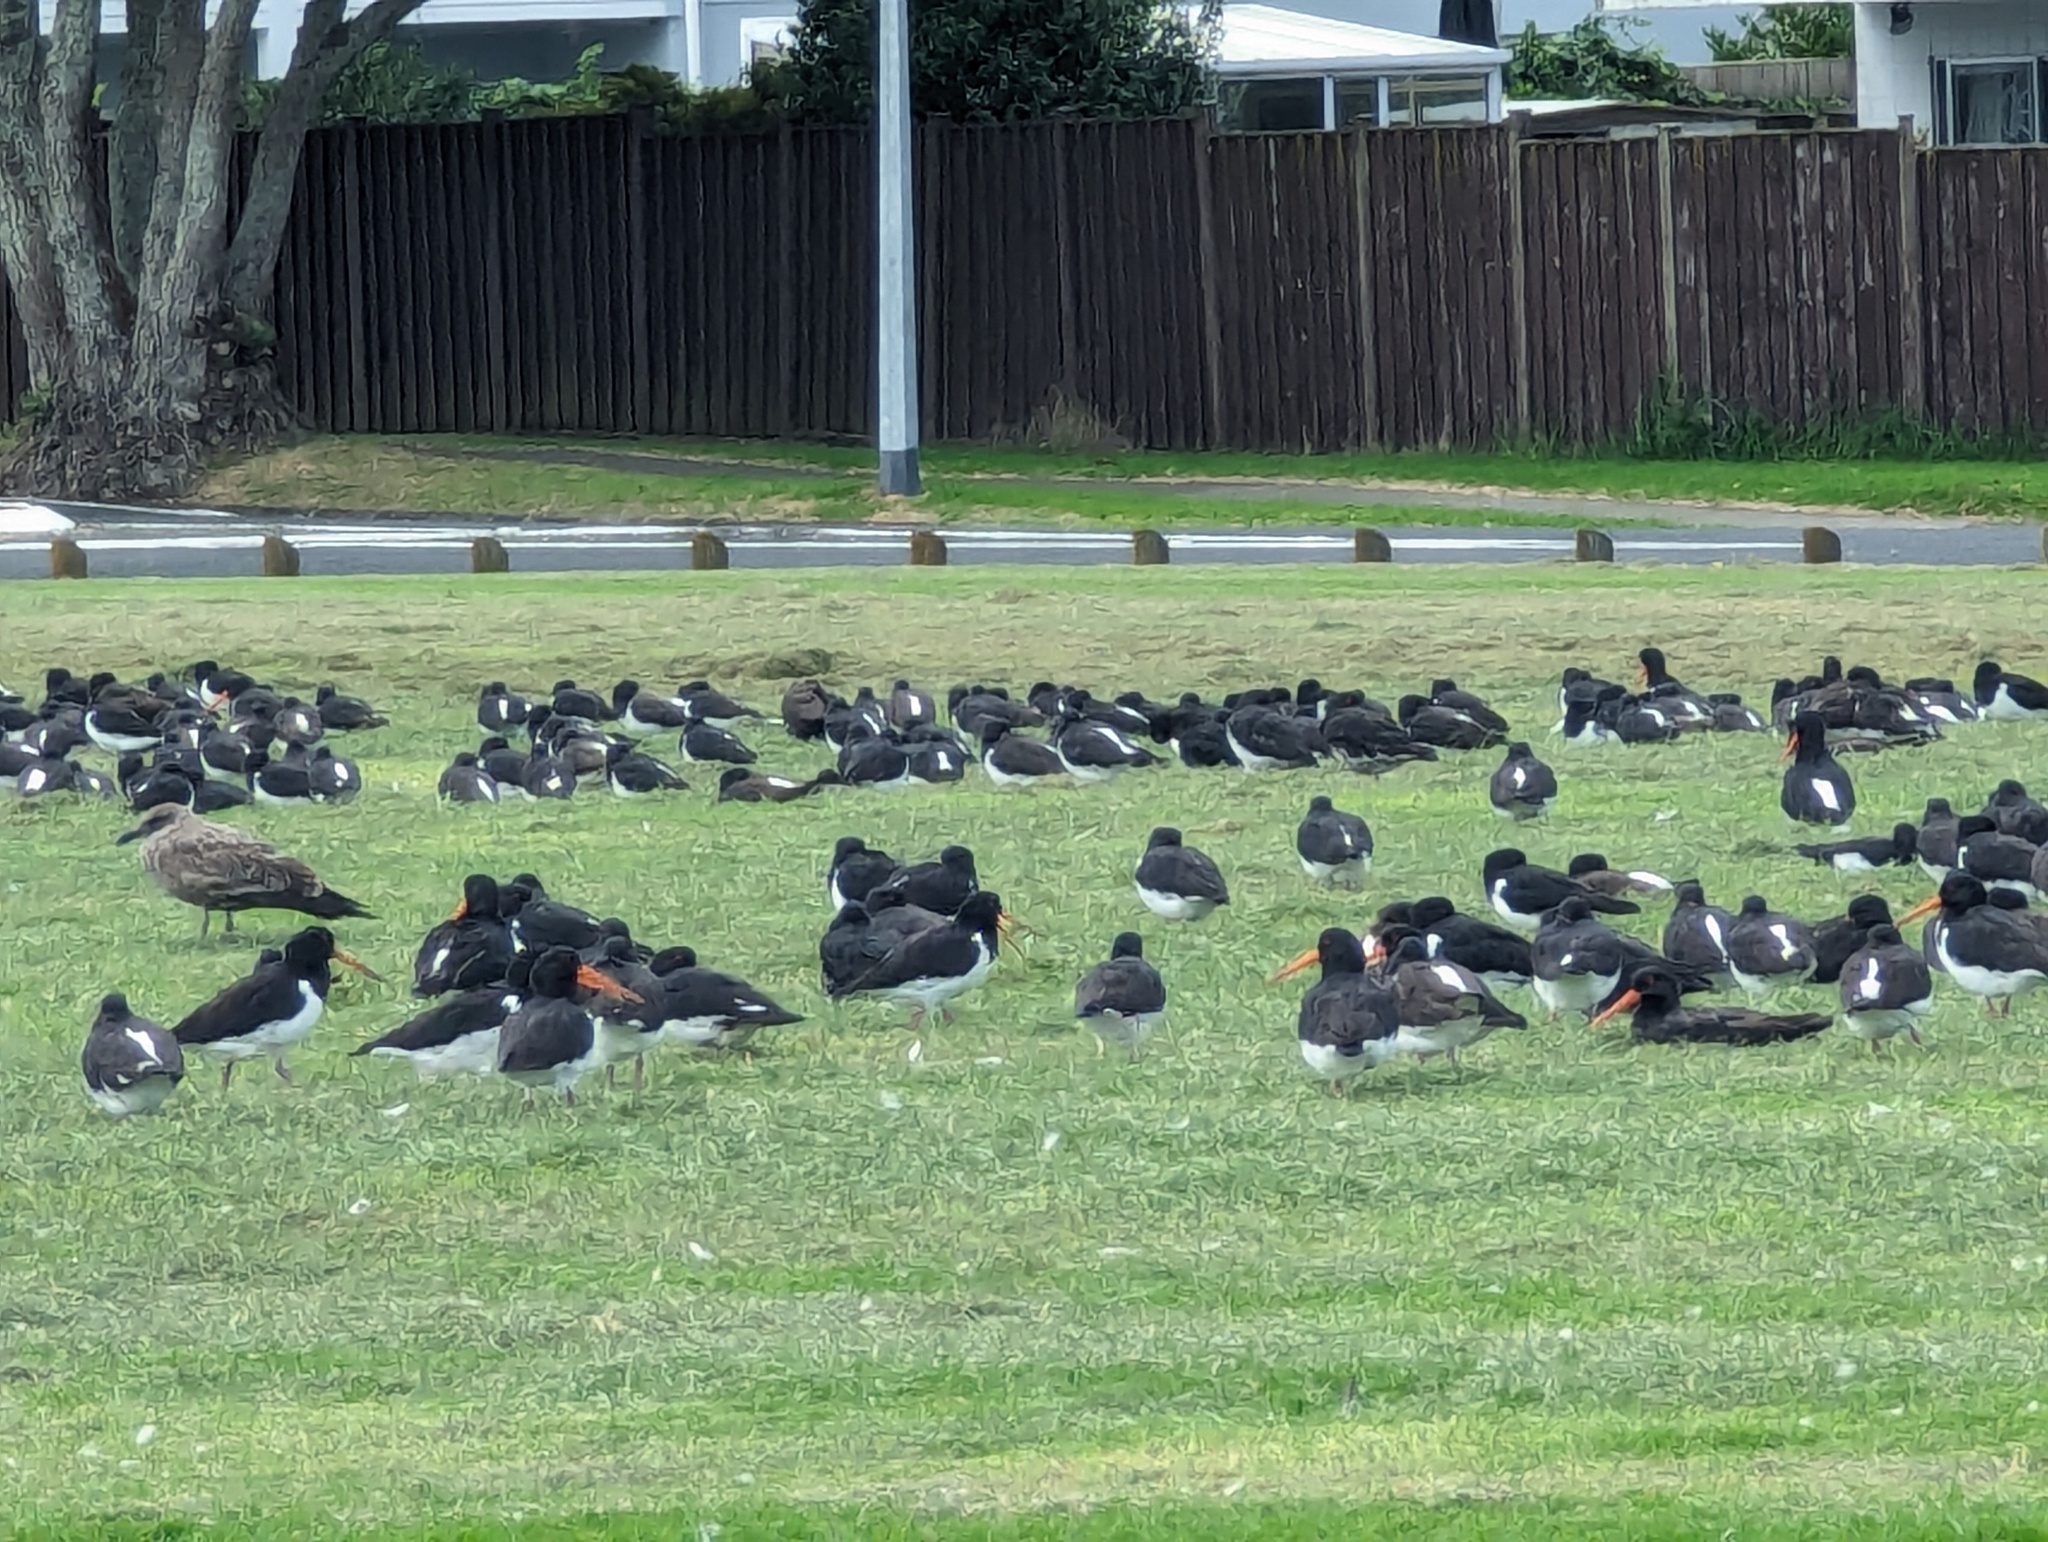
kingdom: Animalia
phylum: Chordata
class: Aves
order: Charadriiformes
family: Haematopodidae
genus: Haematopus
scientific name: Haematopus finschi
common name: South island oystercatcher
